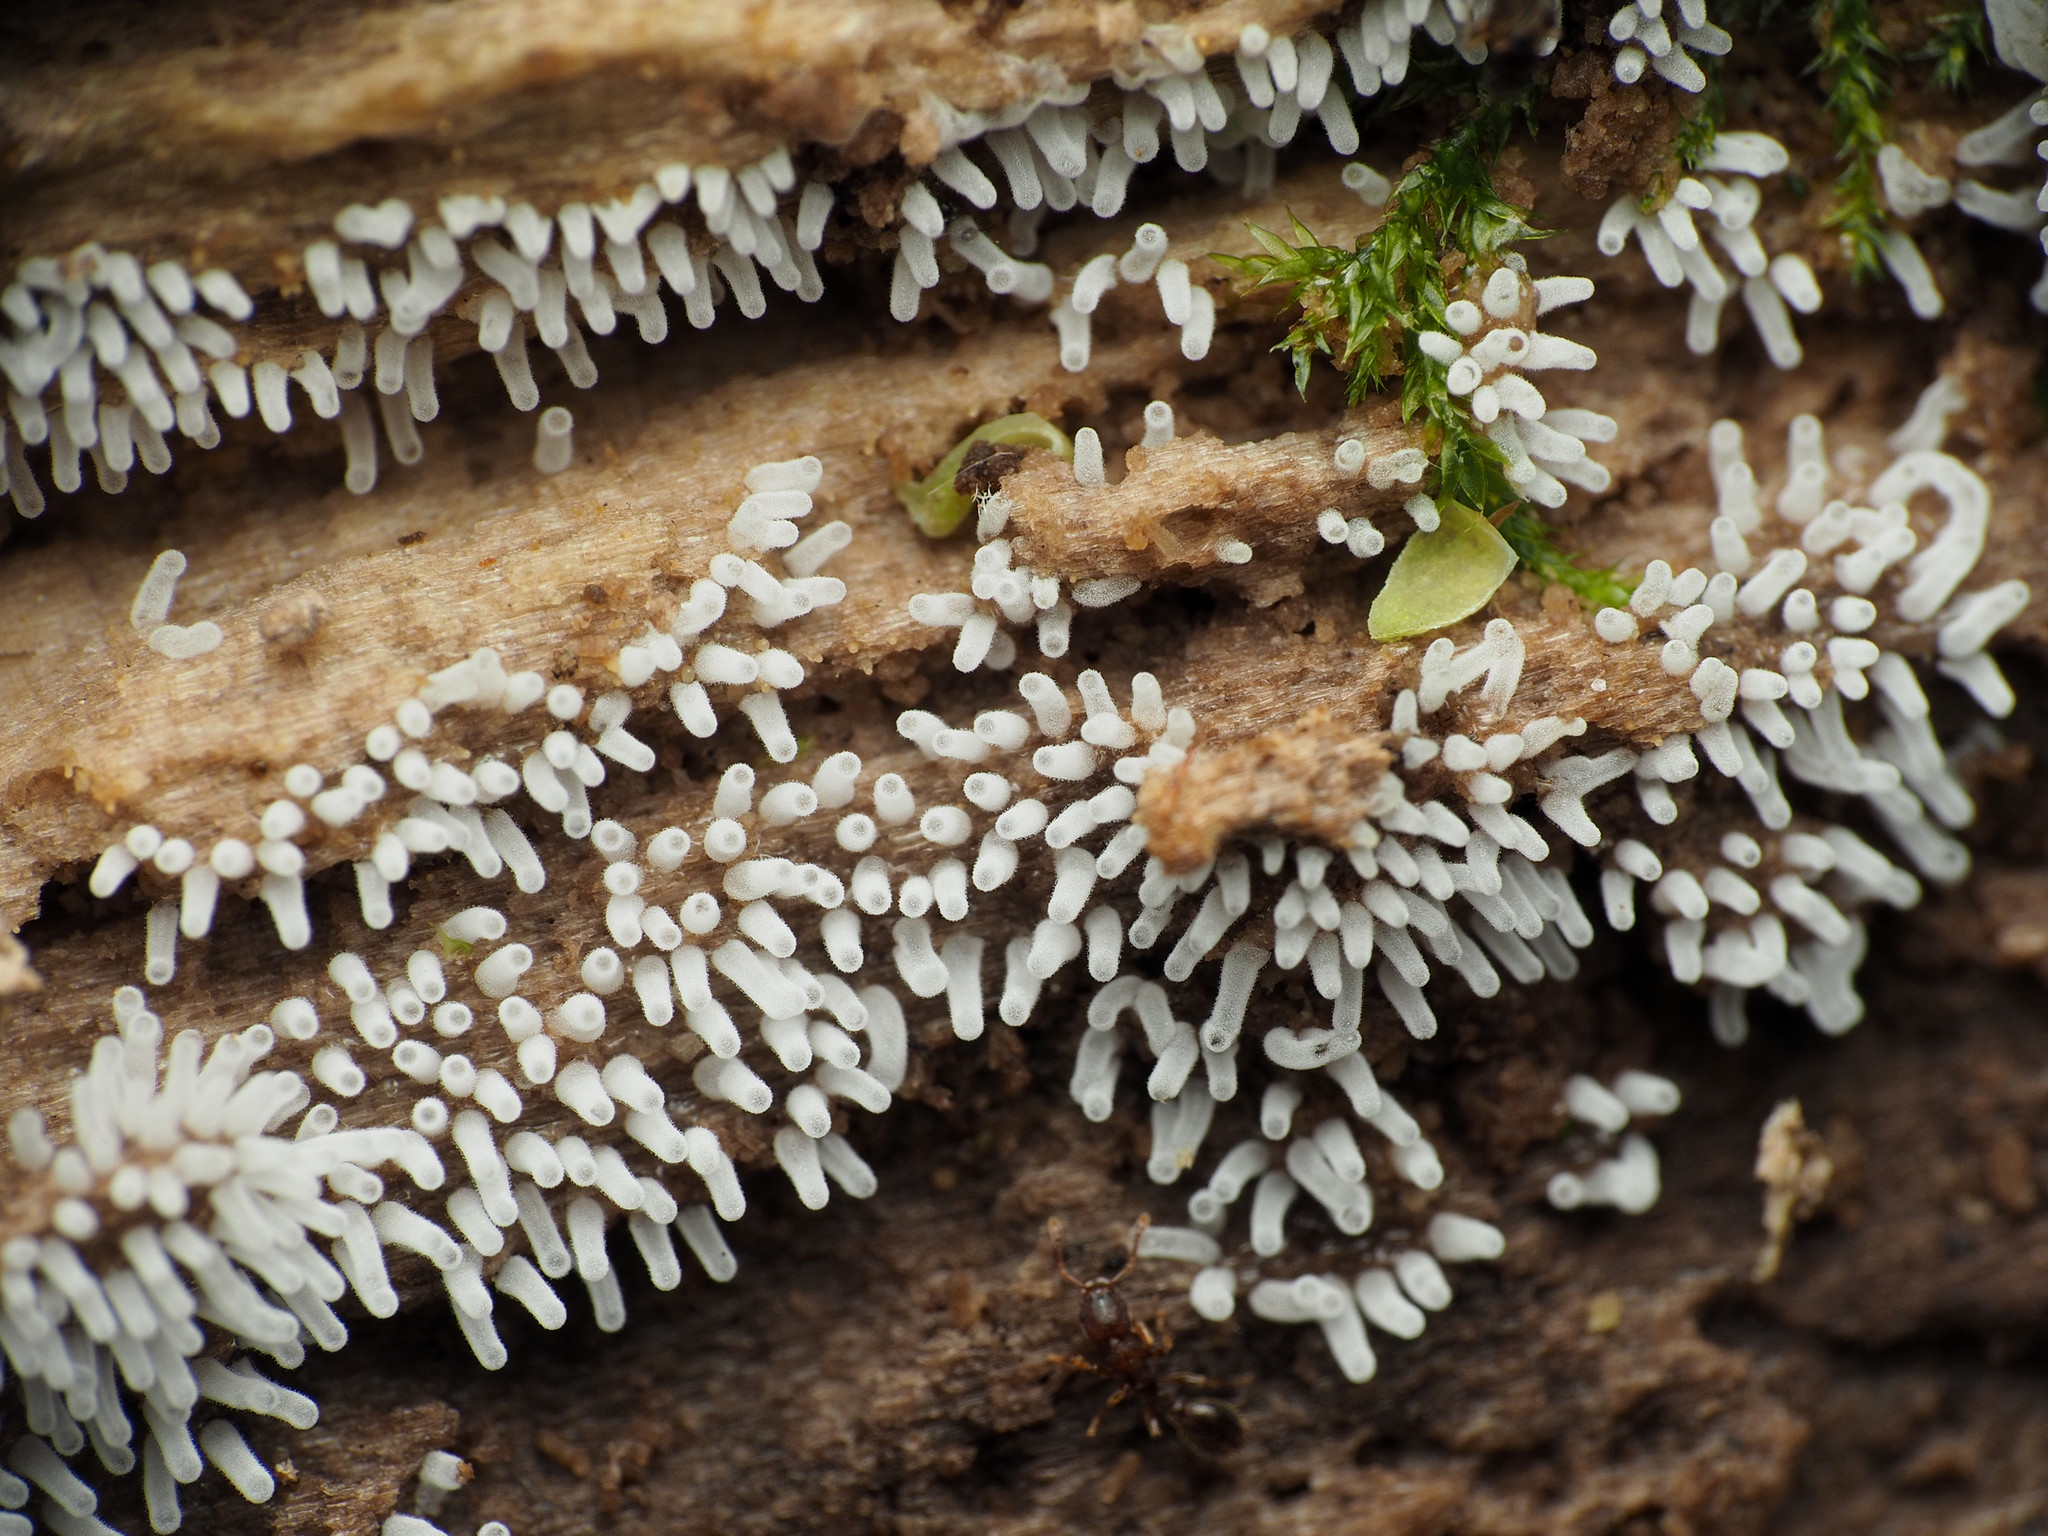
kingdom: Protozoa
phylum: Mycetozoa
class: Protosteliomycetes
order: Ceratiomyxales
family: Ceratiomyxaceae
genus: Ceratiomyxa
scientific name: Ceratiomyxa fruticulosa
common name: Honeycomb coral slime mold
